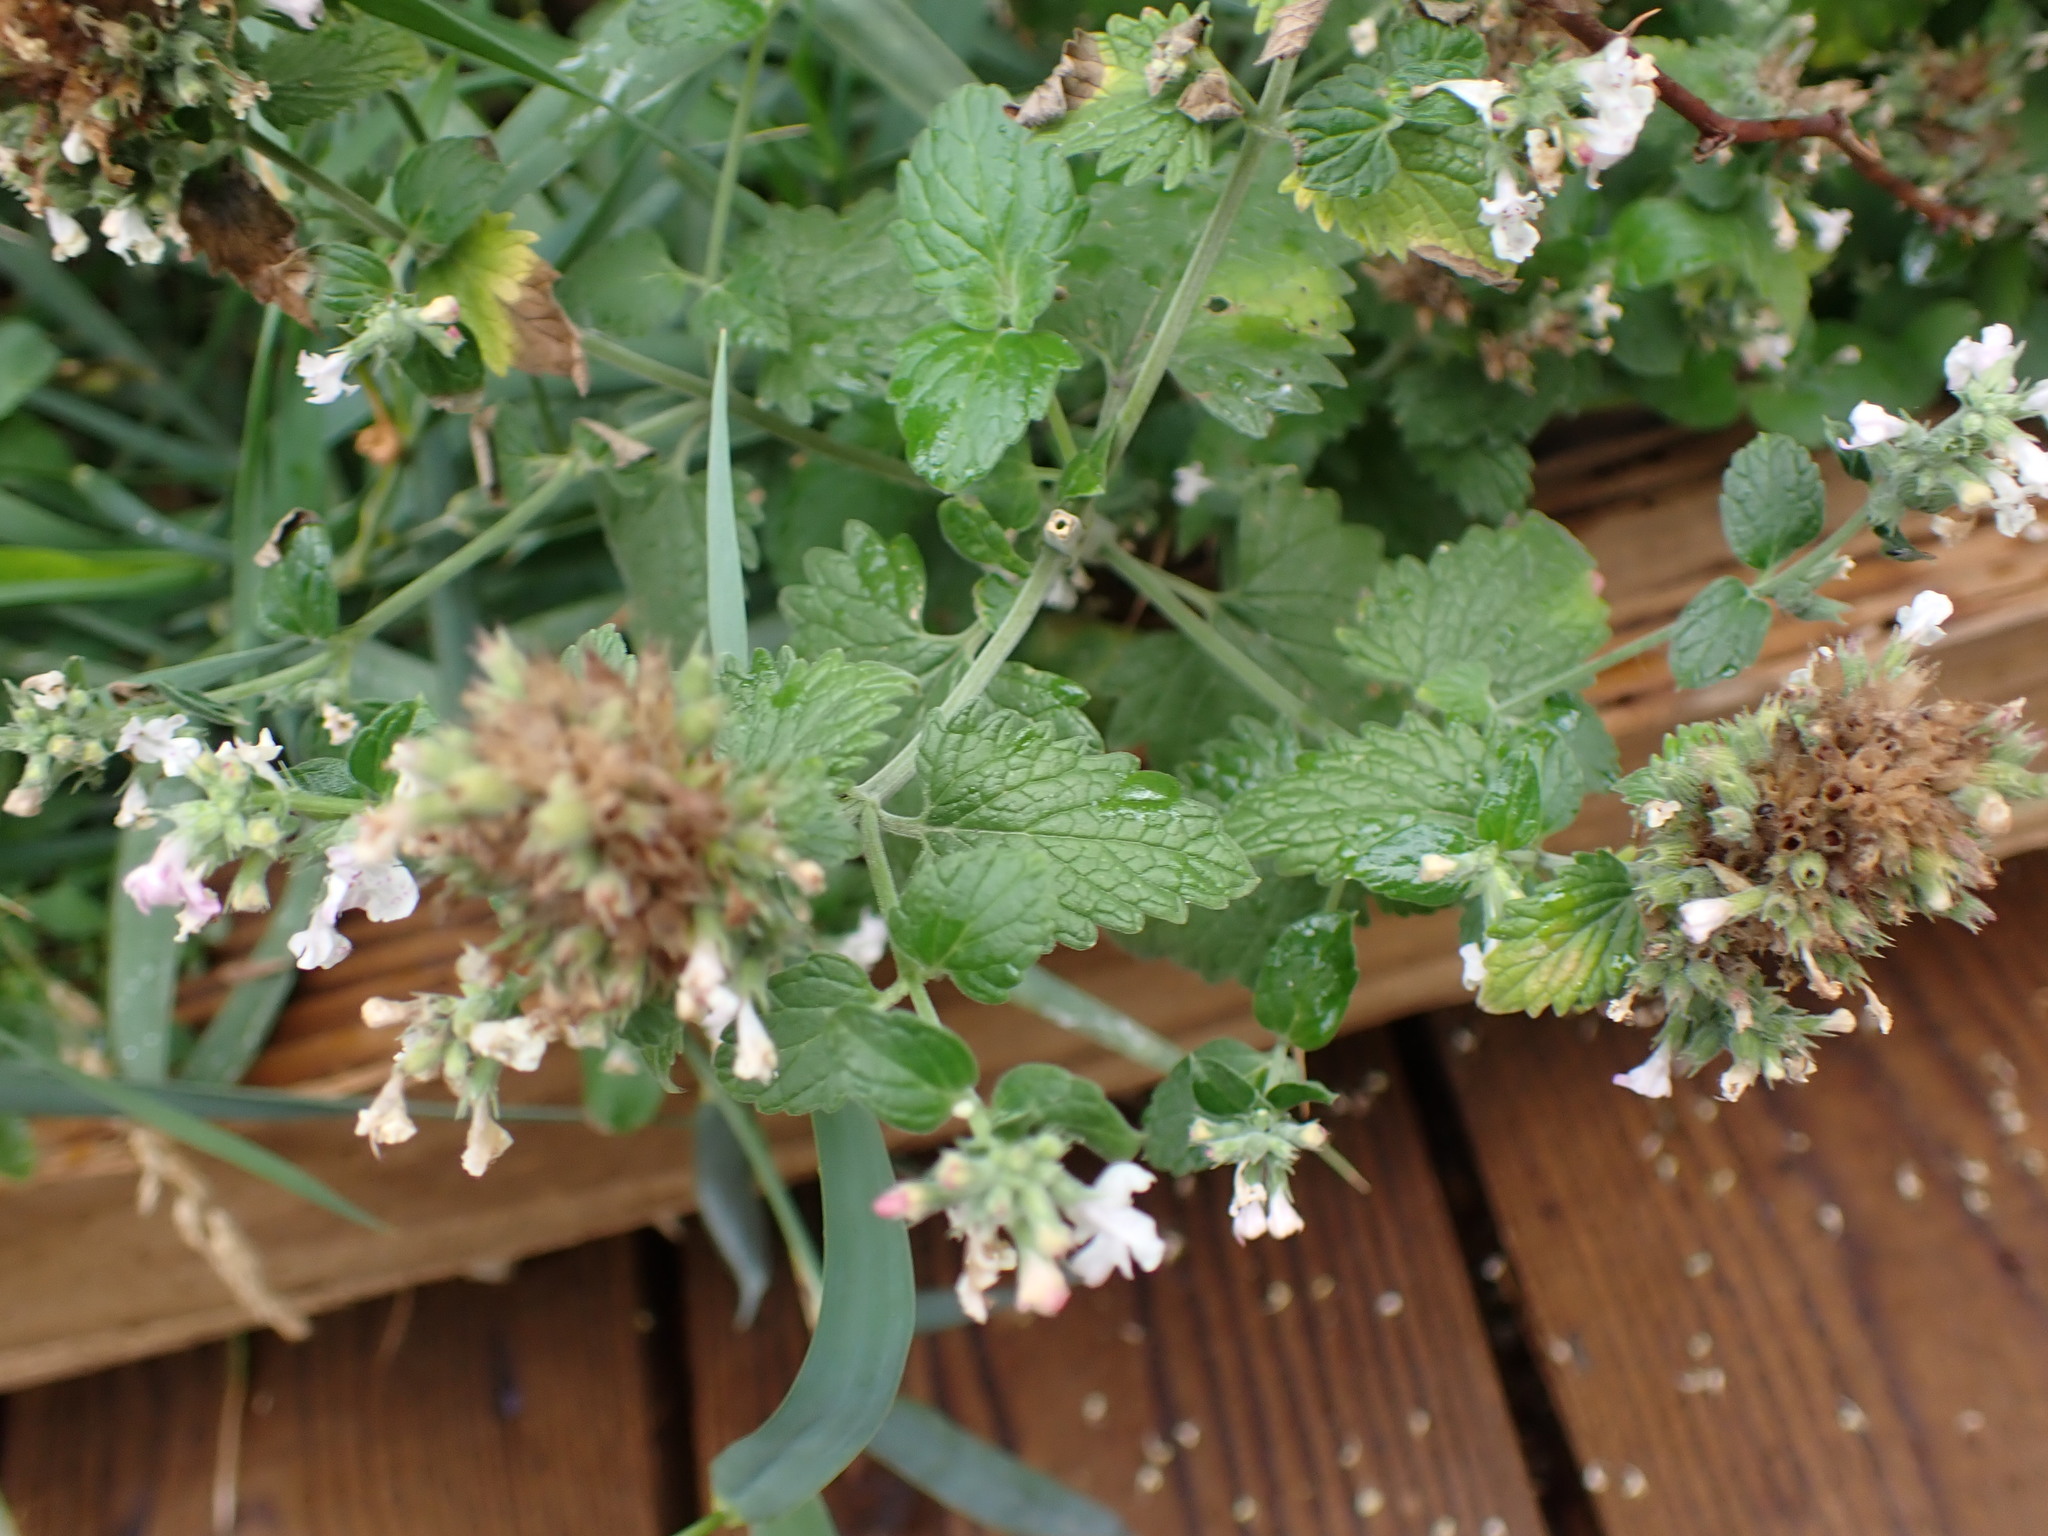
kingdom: Plantae
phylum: Tracheophyta
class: Magnoliopsida
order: Lamiales
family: Lamiaceae
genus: Nepeta
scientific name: Nepeta cataria
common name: Catnip
